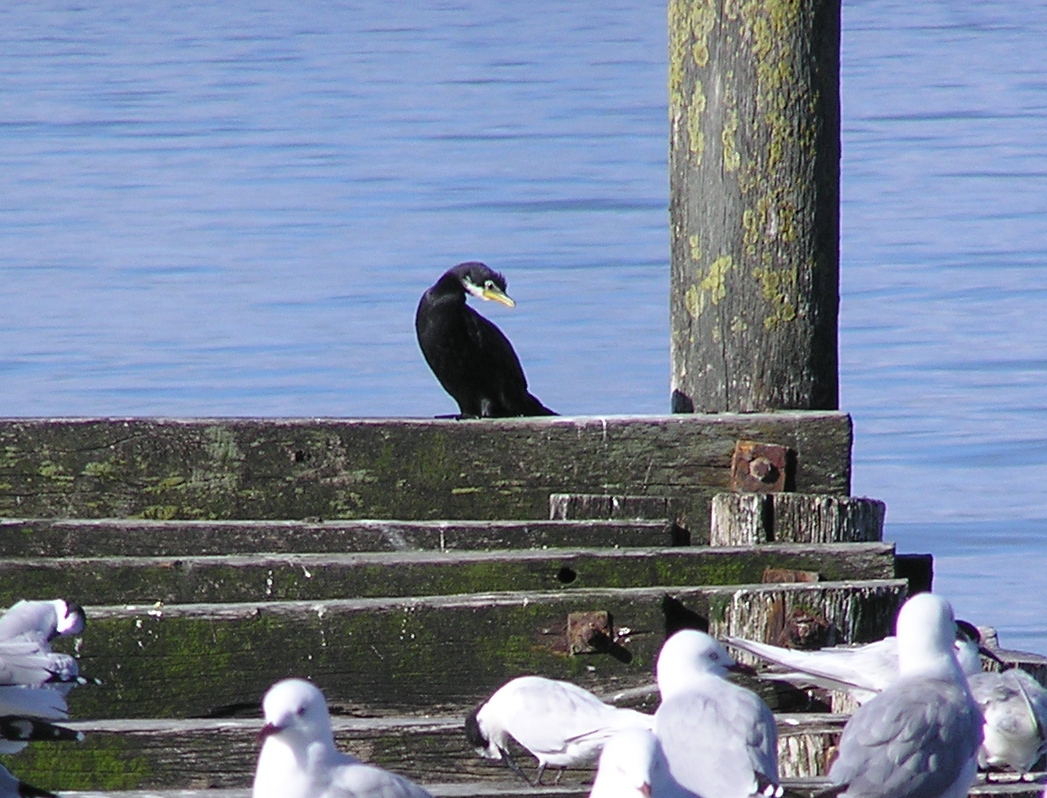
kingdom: Animalia
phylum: Chordata
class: Aves
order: Suliformes
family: Phalacrocoracidae
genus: Microcarbo
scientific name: Microcarbo melanoleucos
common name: Little pied cormorant
